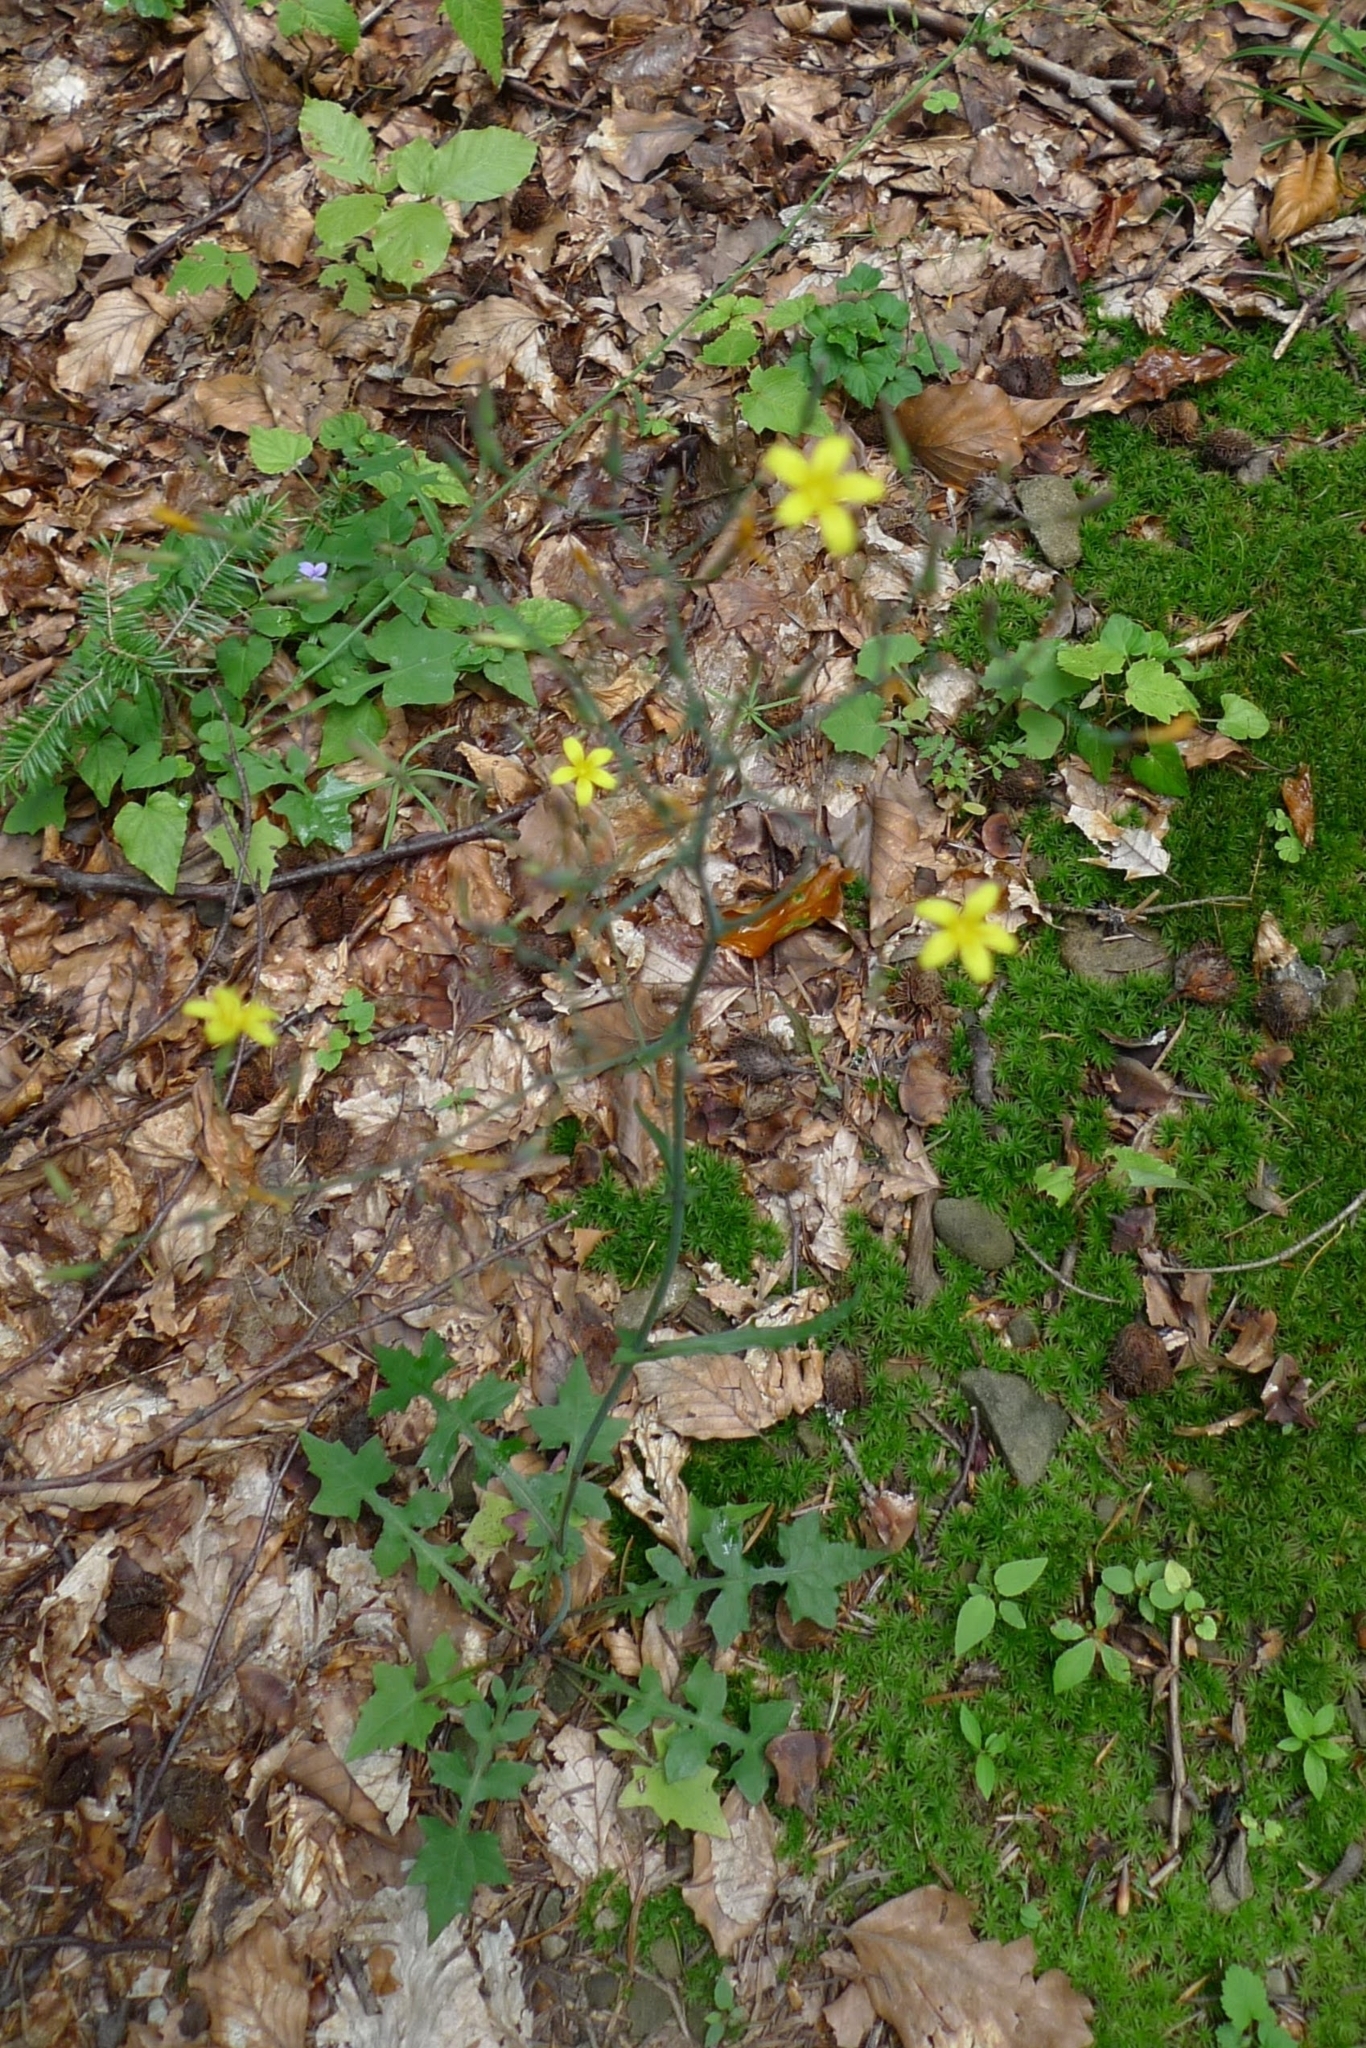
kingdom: Plantae
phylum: Tracheophyta
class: Magnoliopsida
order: Asterales
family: Asteraceae
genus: Mycelis
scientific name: Mycelis muralis
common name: Wall lettuce
